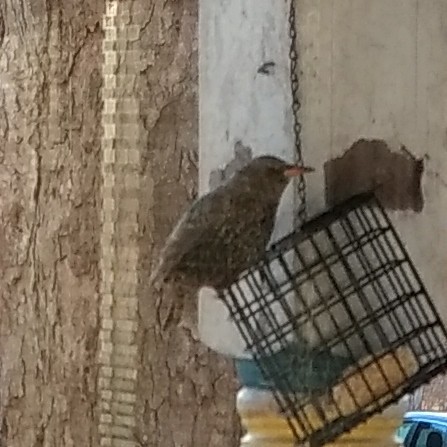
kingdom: Animalia
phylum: Chordata
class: Aves
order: Passeriformes
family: Sturnidae
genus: Sturnus
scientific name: Sturnus vulgaris
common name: Common starling
